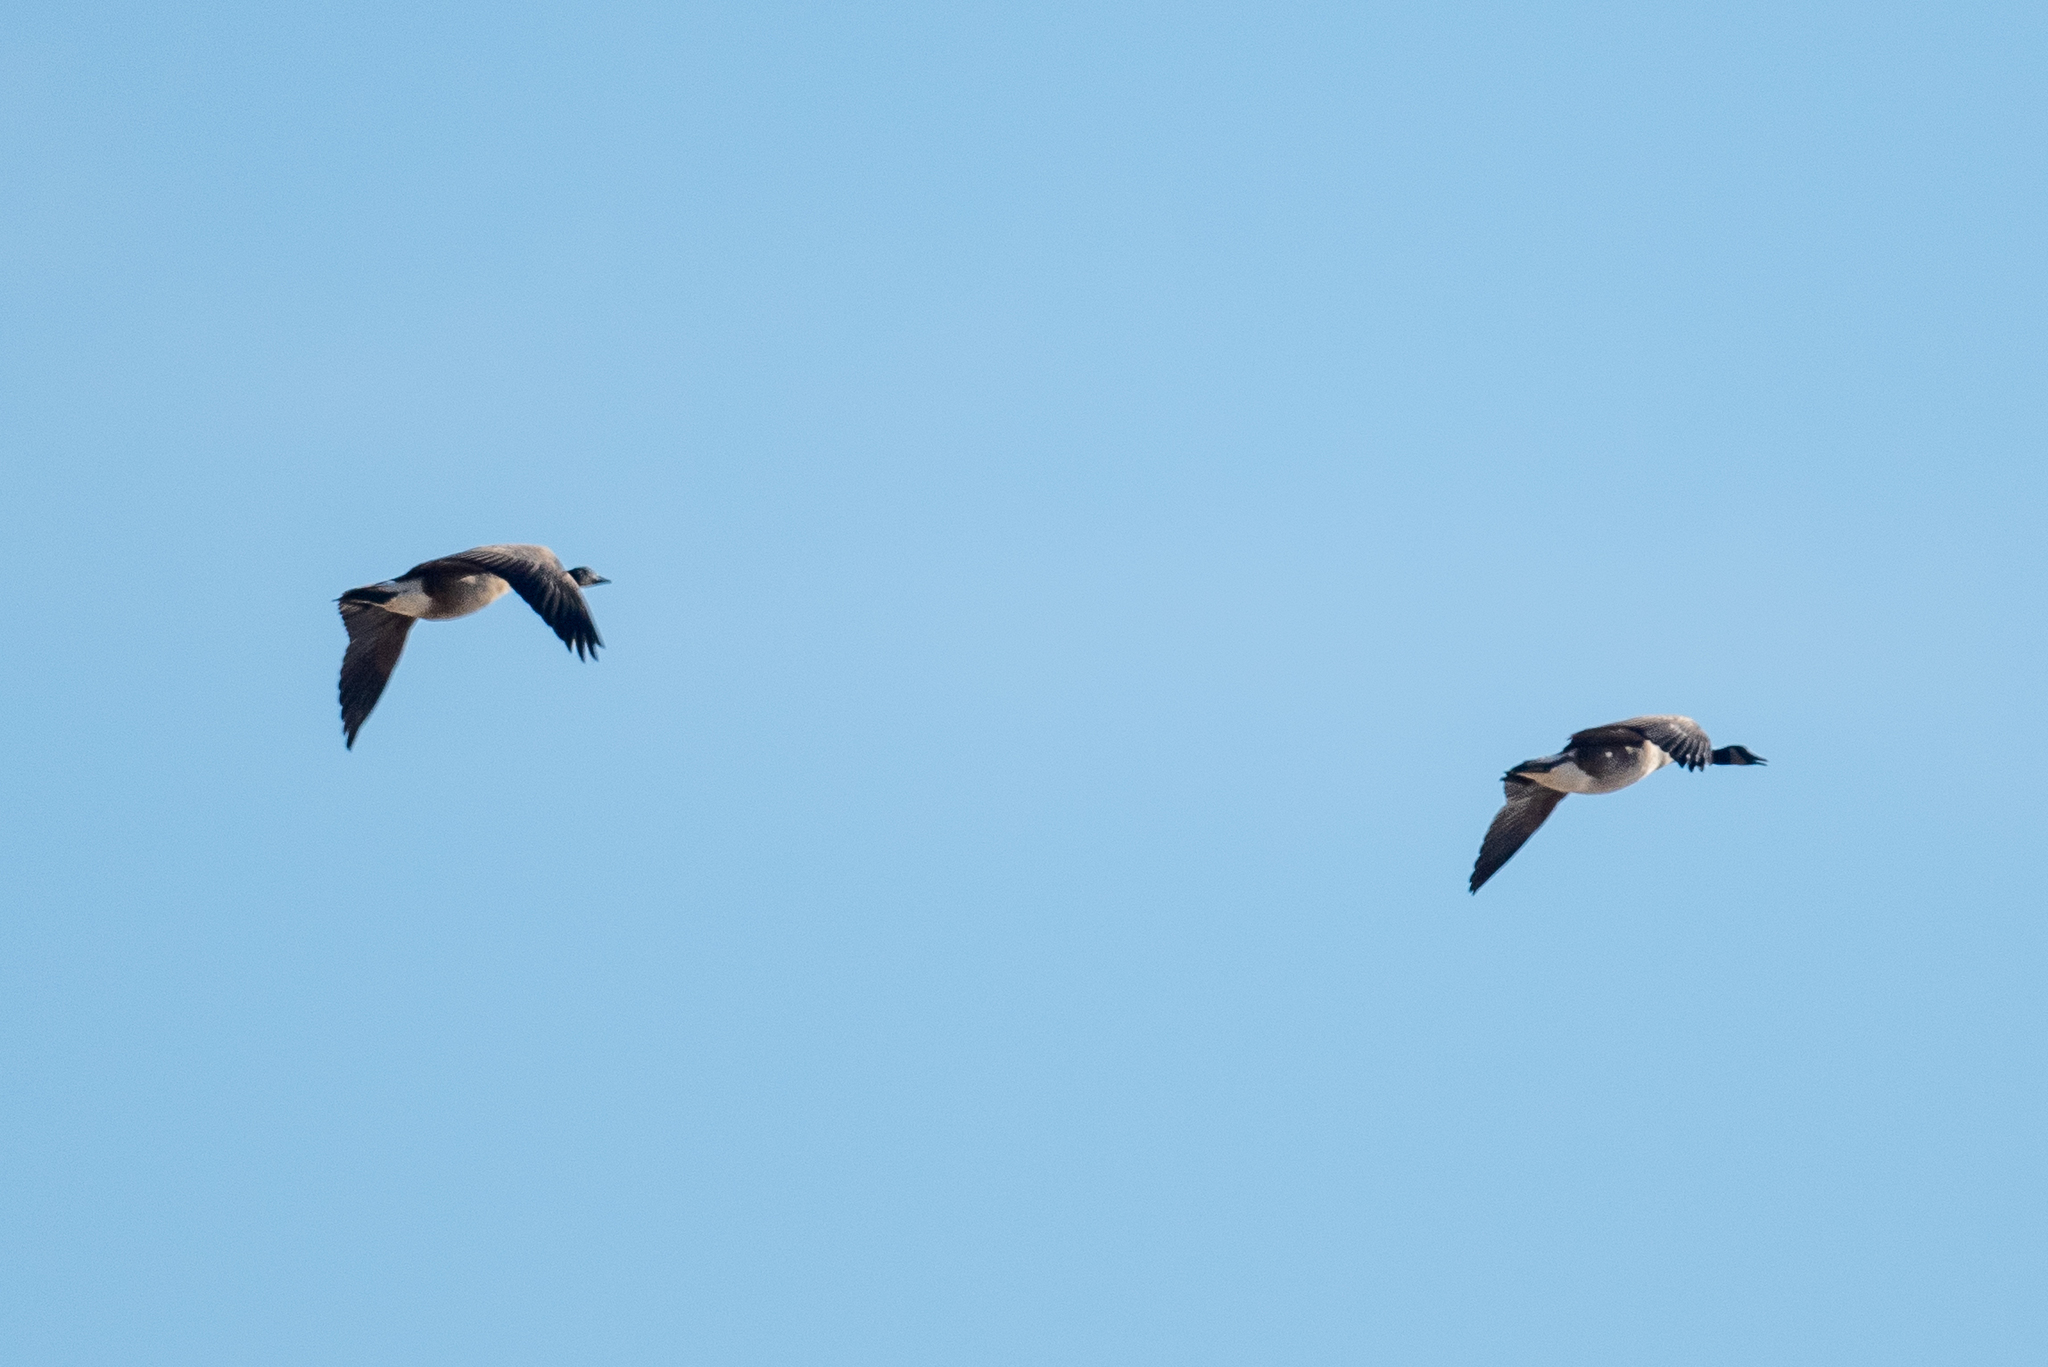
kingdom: Animalia
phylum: Chordata
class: Aves
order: Anseriformes
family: Anatidae
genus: Branta
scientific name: Branta canadensis
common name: Canada goose
